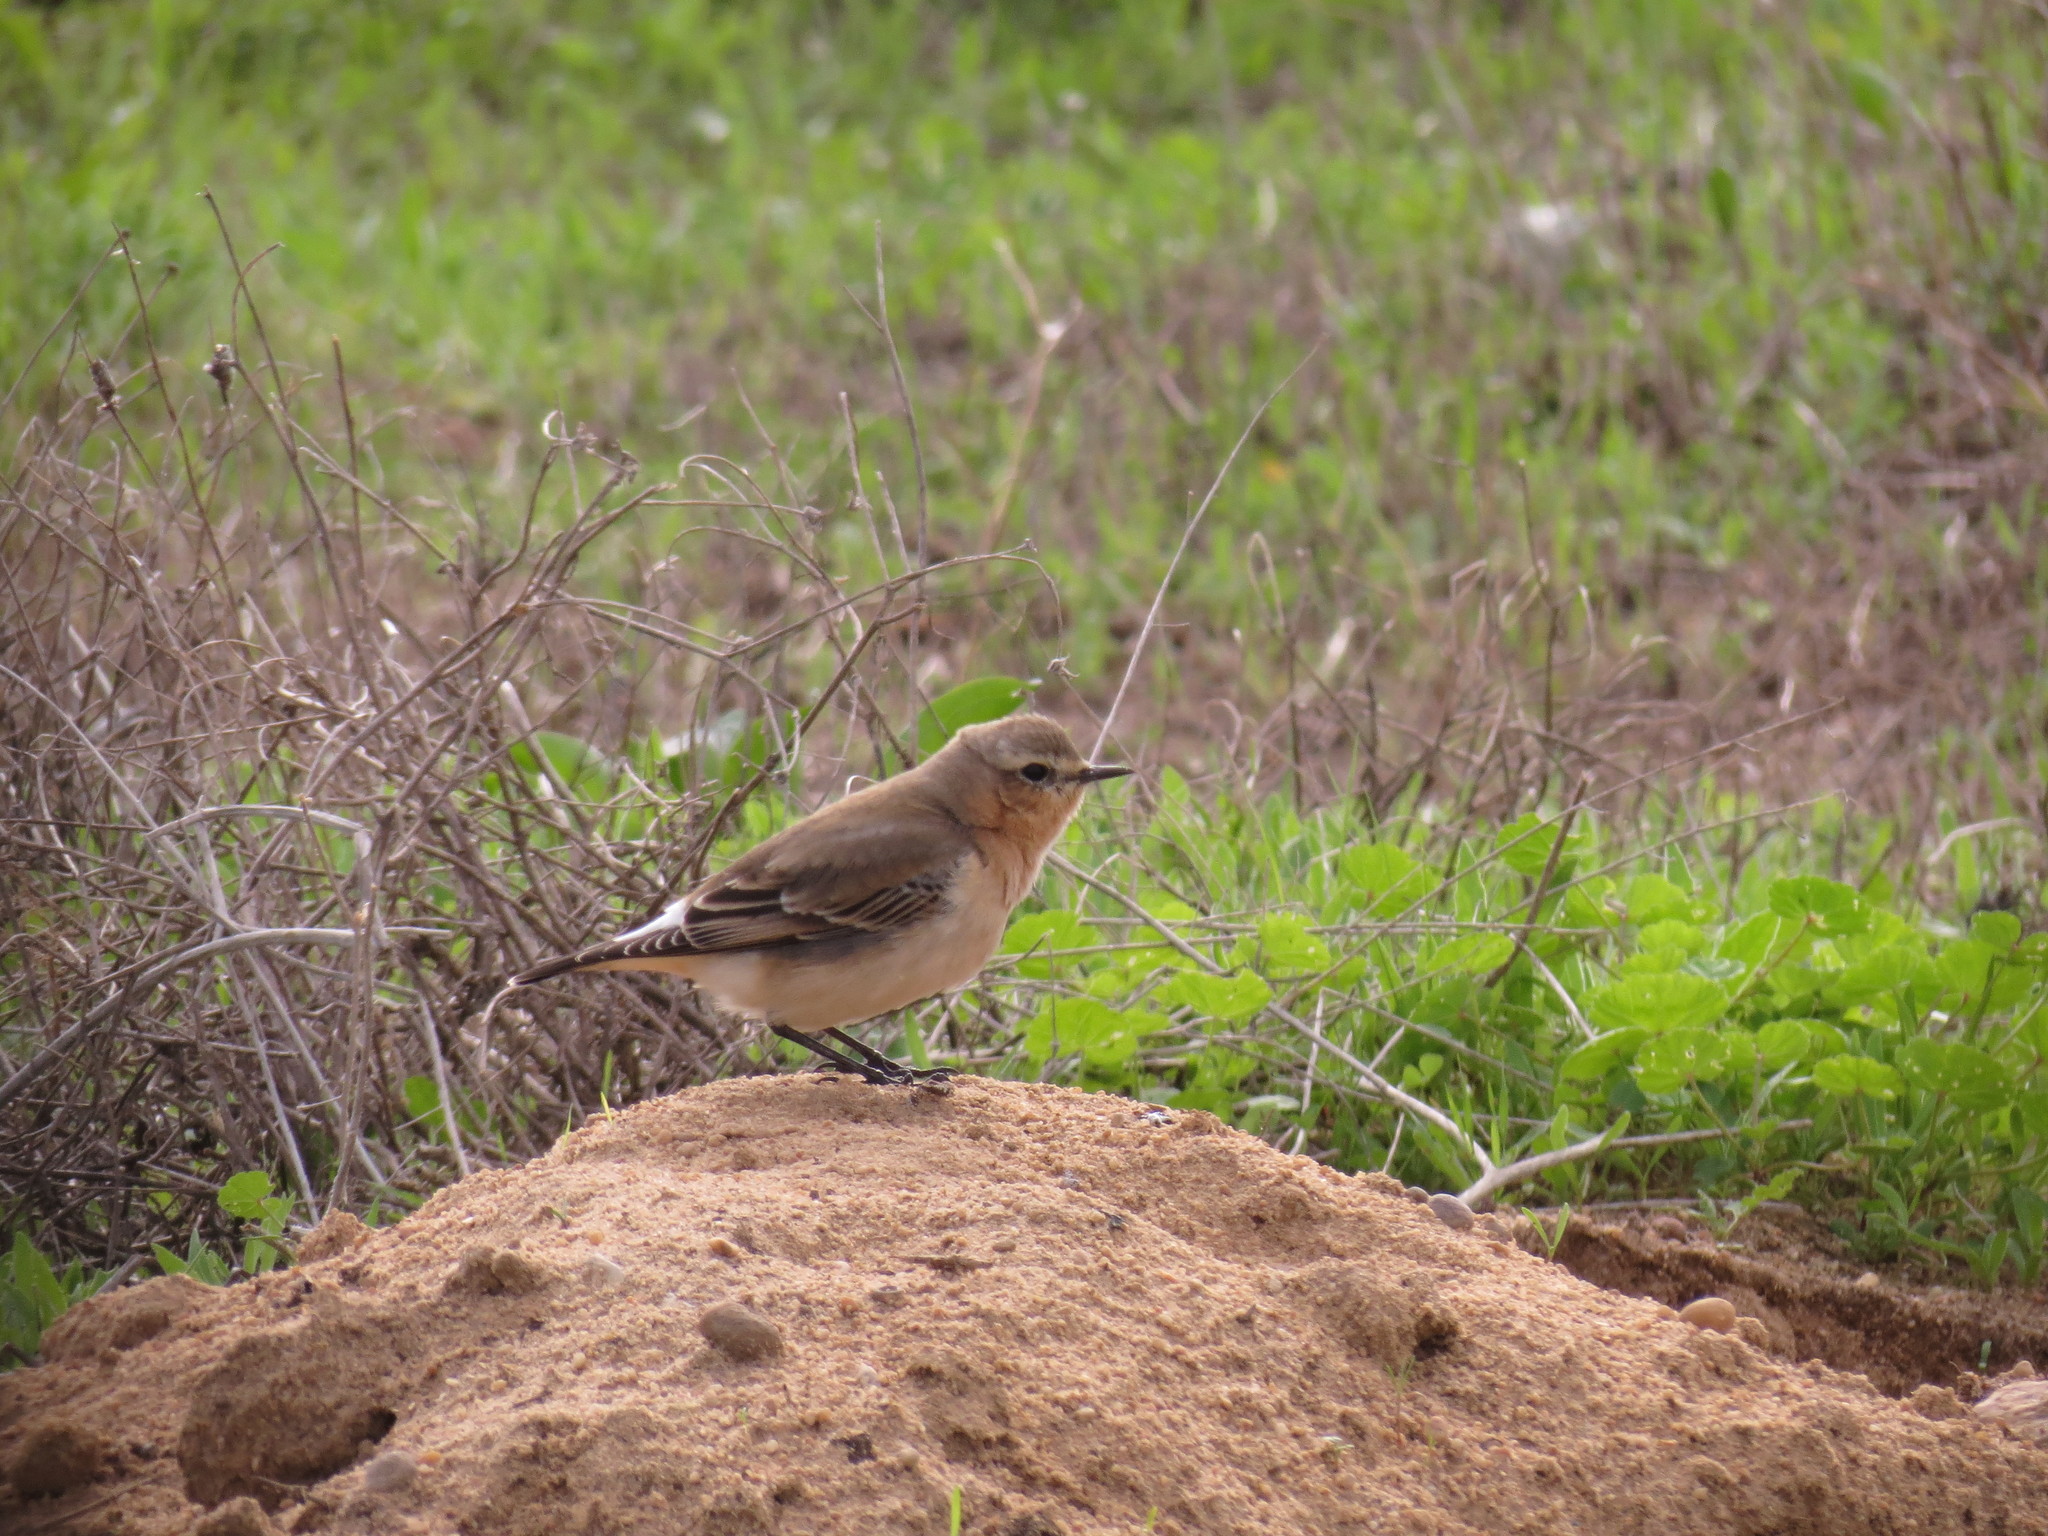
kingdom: Animalia
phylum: Chordata
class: Aves
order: Passeriformes
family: Muscicapidae
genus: Oenanthe
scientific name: Oenanthe oenanthe
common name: Northern wheatear
